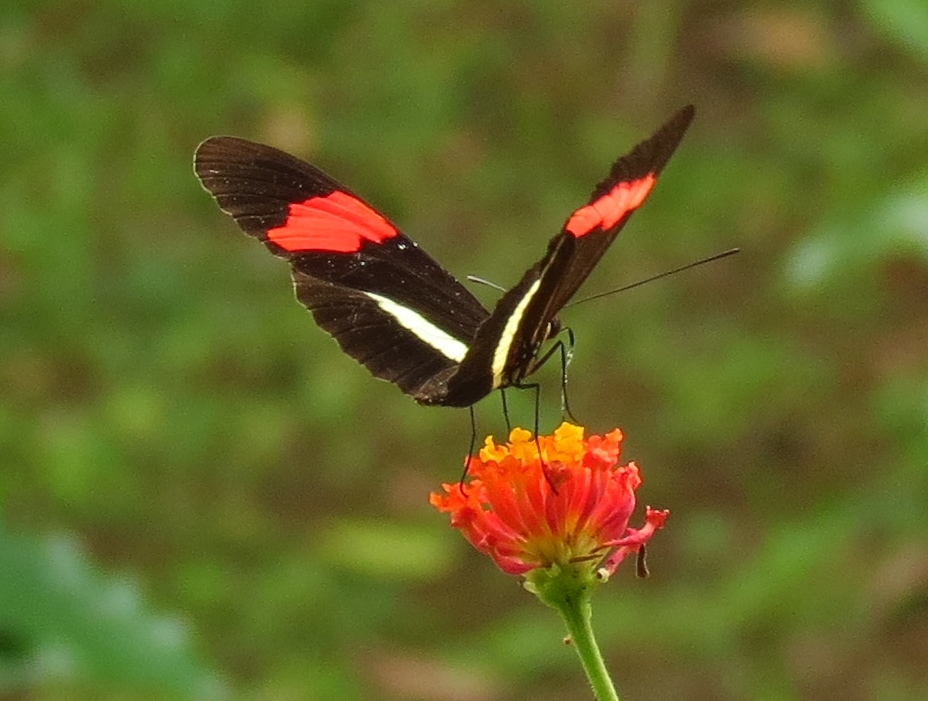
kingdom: Animalia
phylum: Arthropoda
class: Insecta
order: Lepidoptera
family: Nymphalidae
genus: Tirumala
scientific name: Tirumala petiverana
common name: Blue monarch
